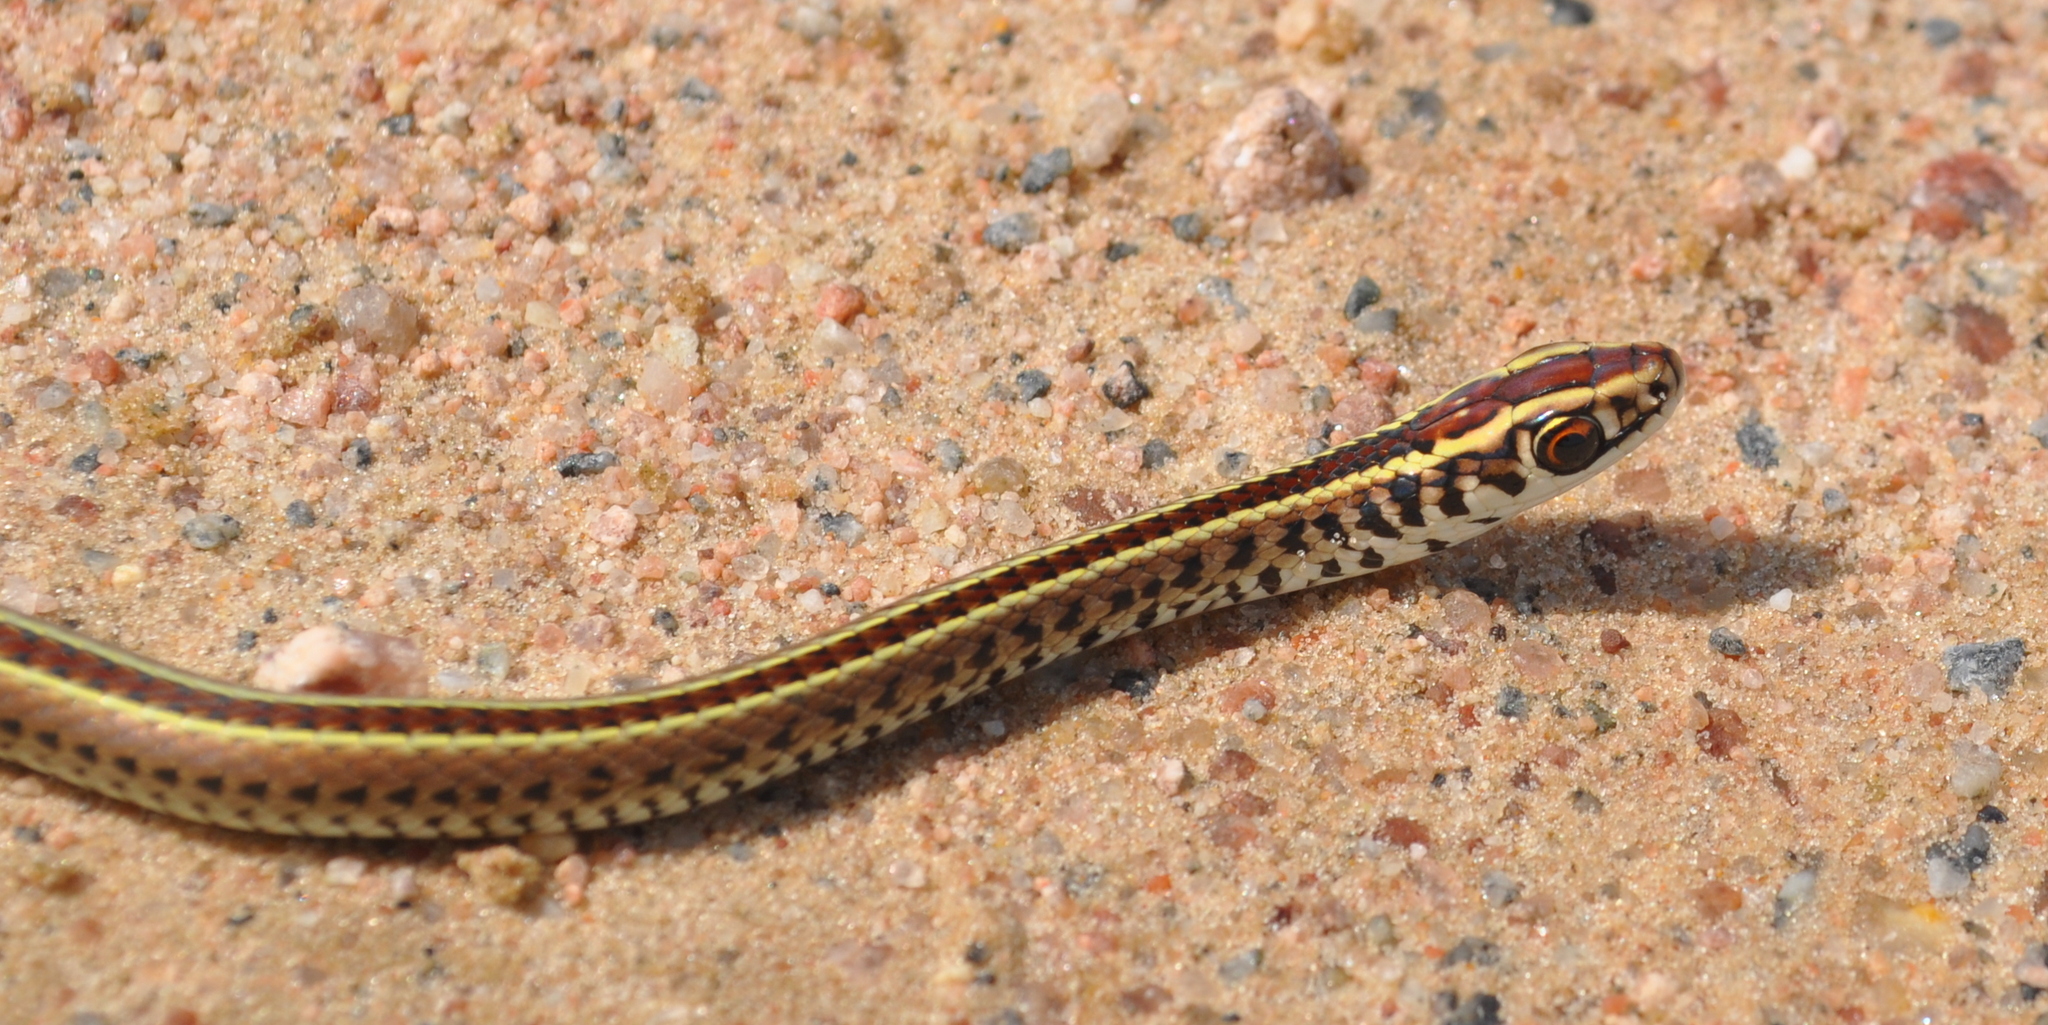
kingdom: Animalia
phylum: Chordata
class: Squamata
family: Colubridae
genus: Lygophis
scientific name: Lygophis flavifrenatus
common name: Fronted ground snake
